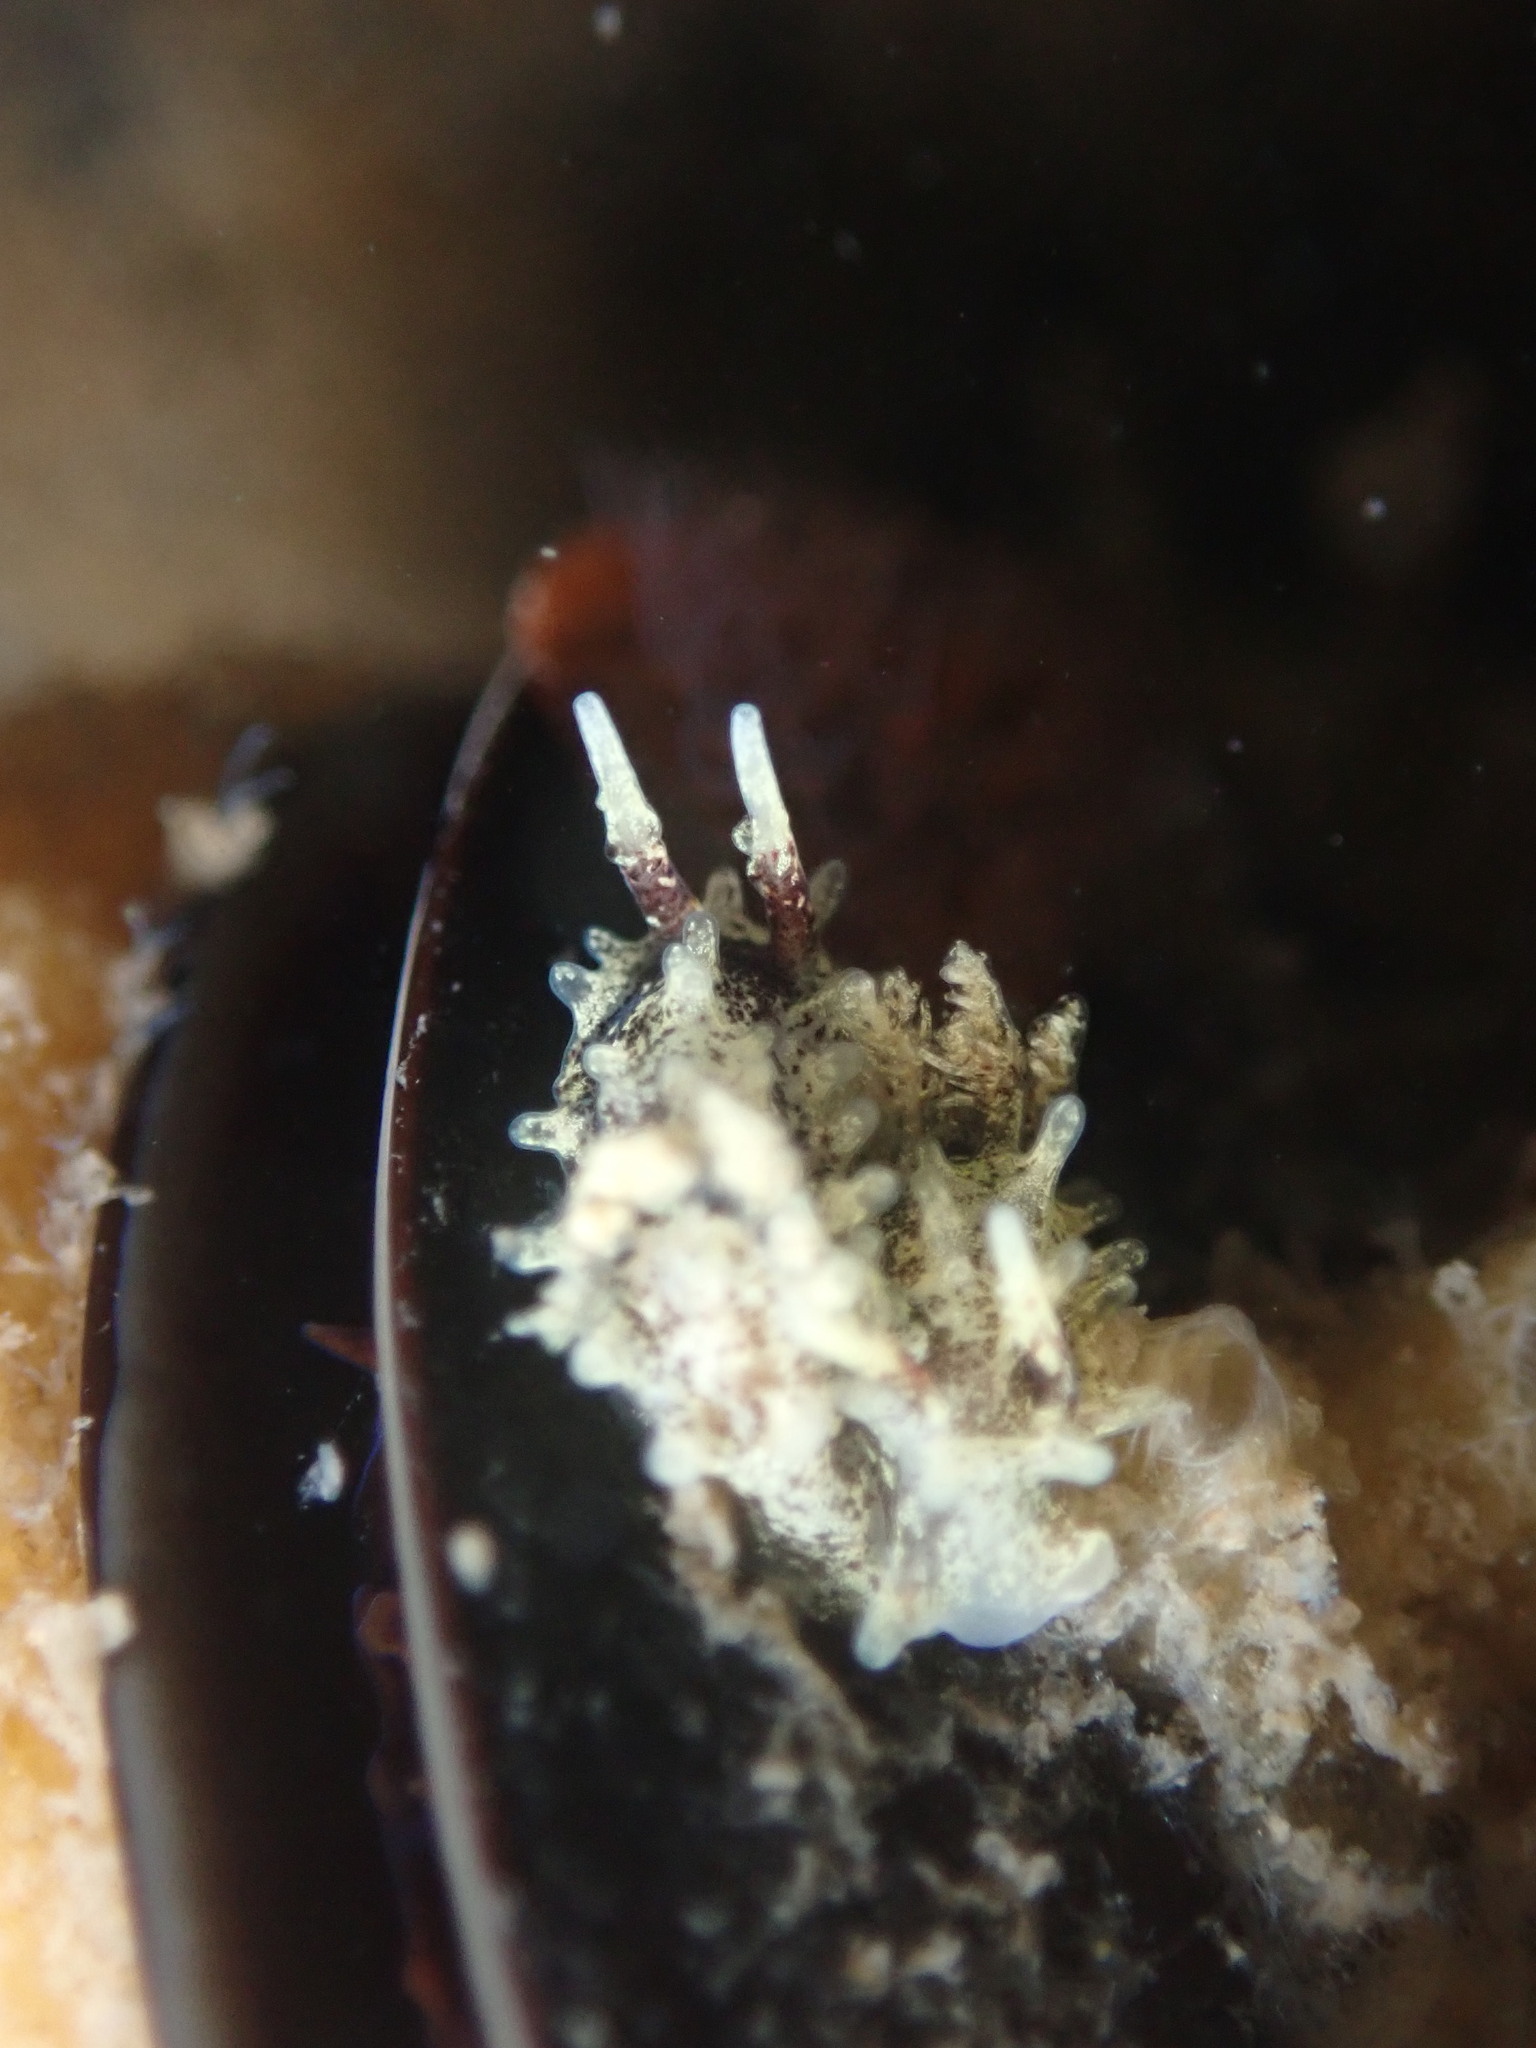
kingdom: Animalia
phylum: Mollusca
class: Gastropoda
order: Nudibranchia
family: Goniodorididae
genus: Okenia
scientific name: Okenia
